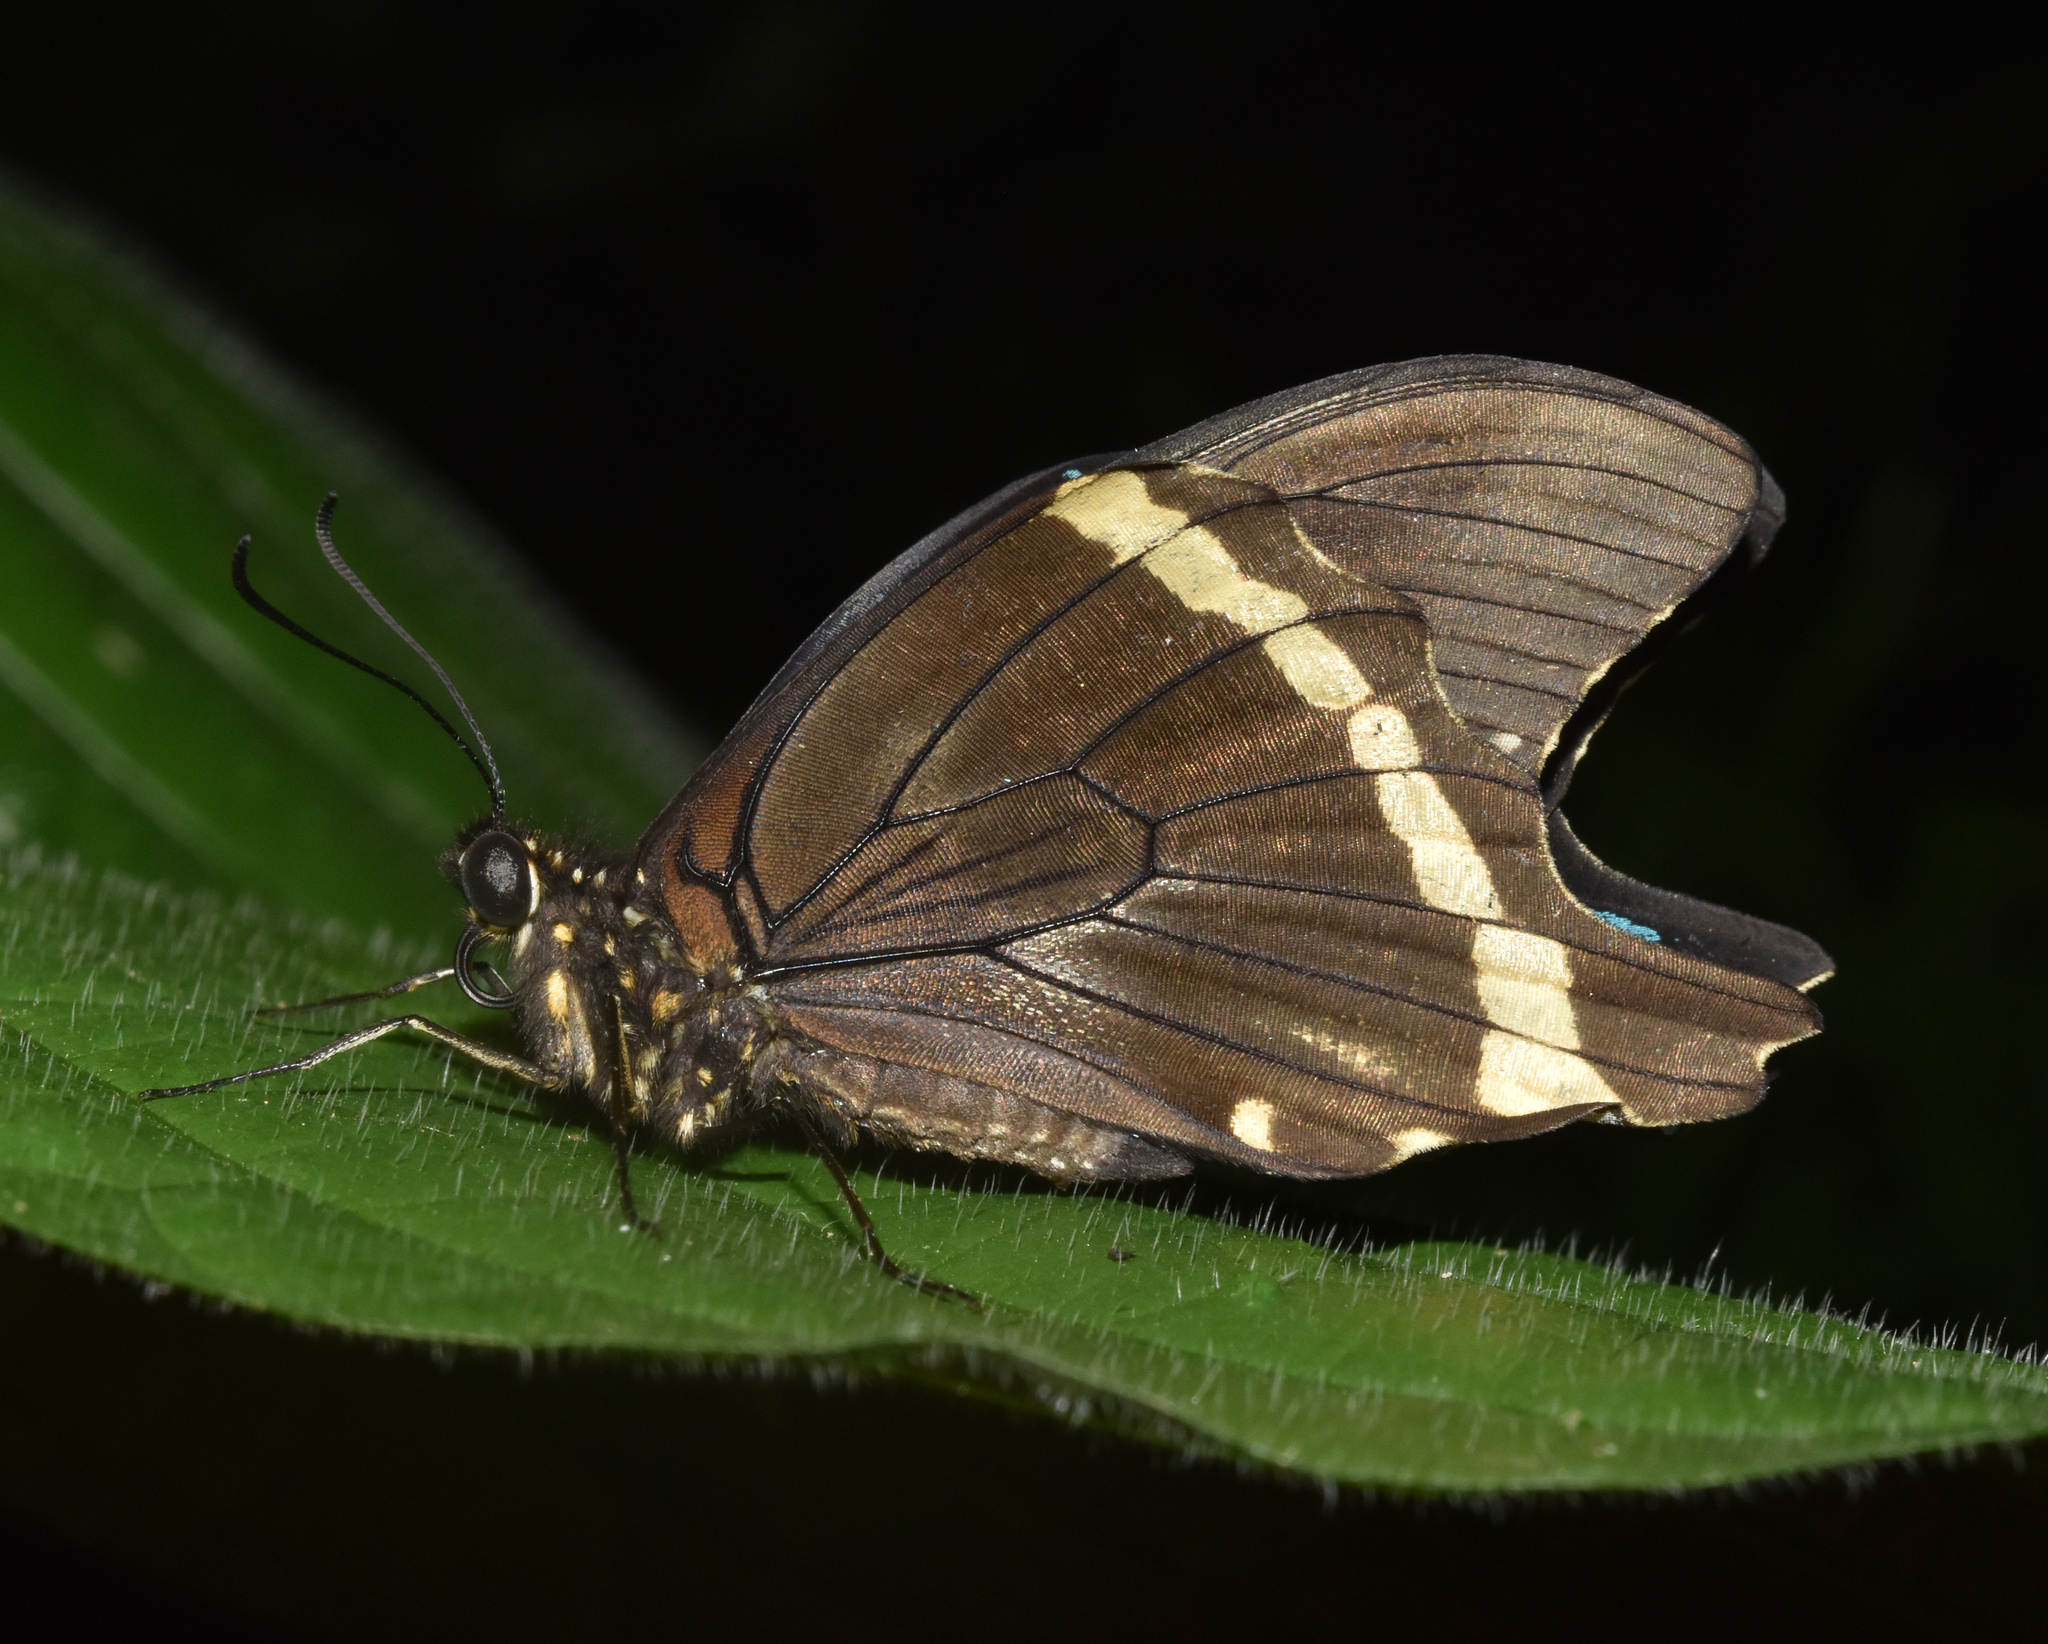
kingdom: Animalia
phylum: Arthropoda
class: Insecta
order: Lepidoptera
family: Papilionidae
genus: Papilio
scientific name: Papilio nireus
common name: Greenbanded swallowtail
